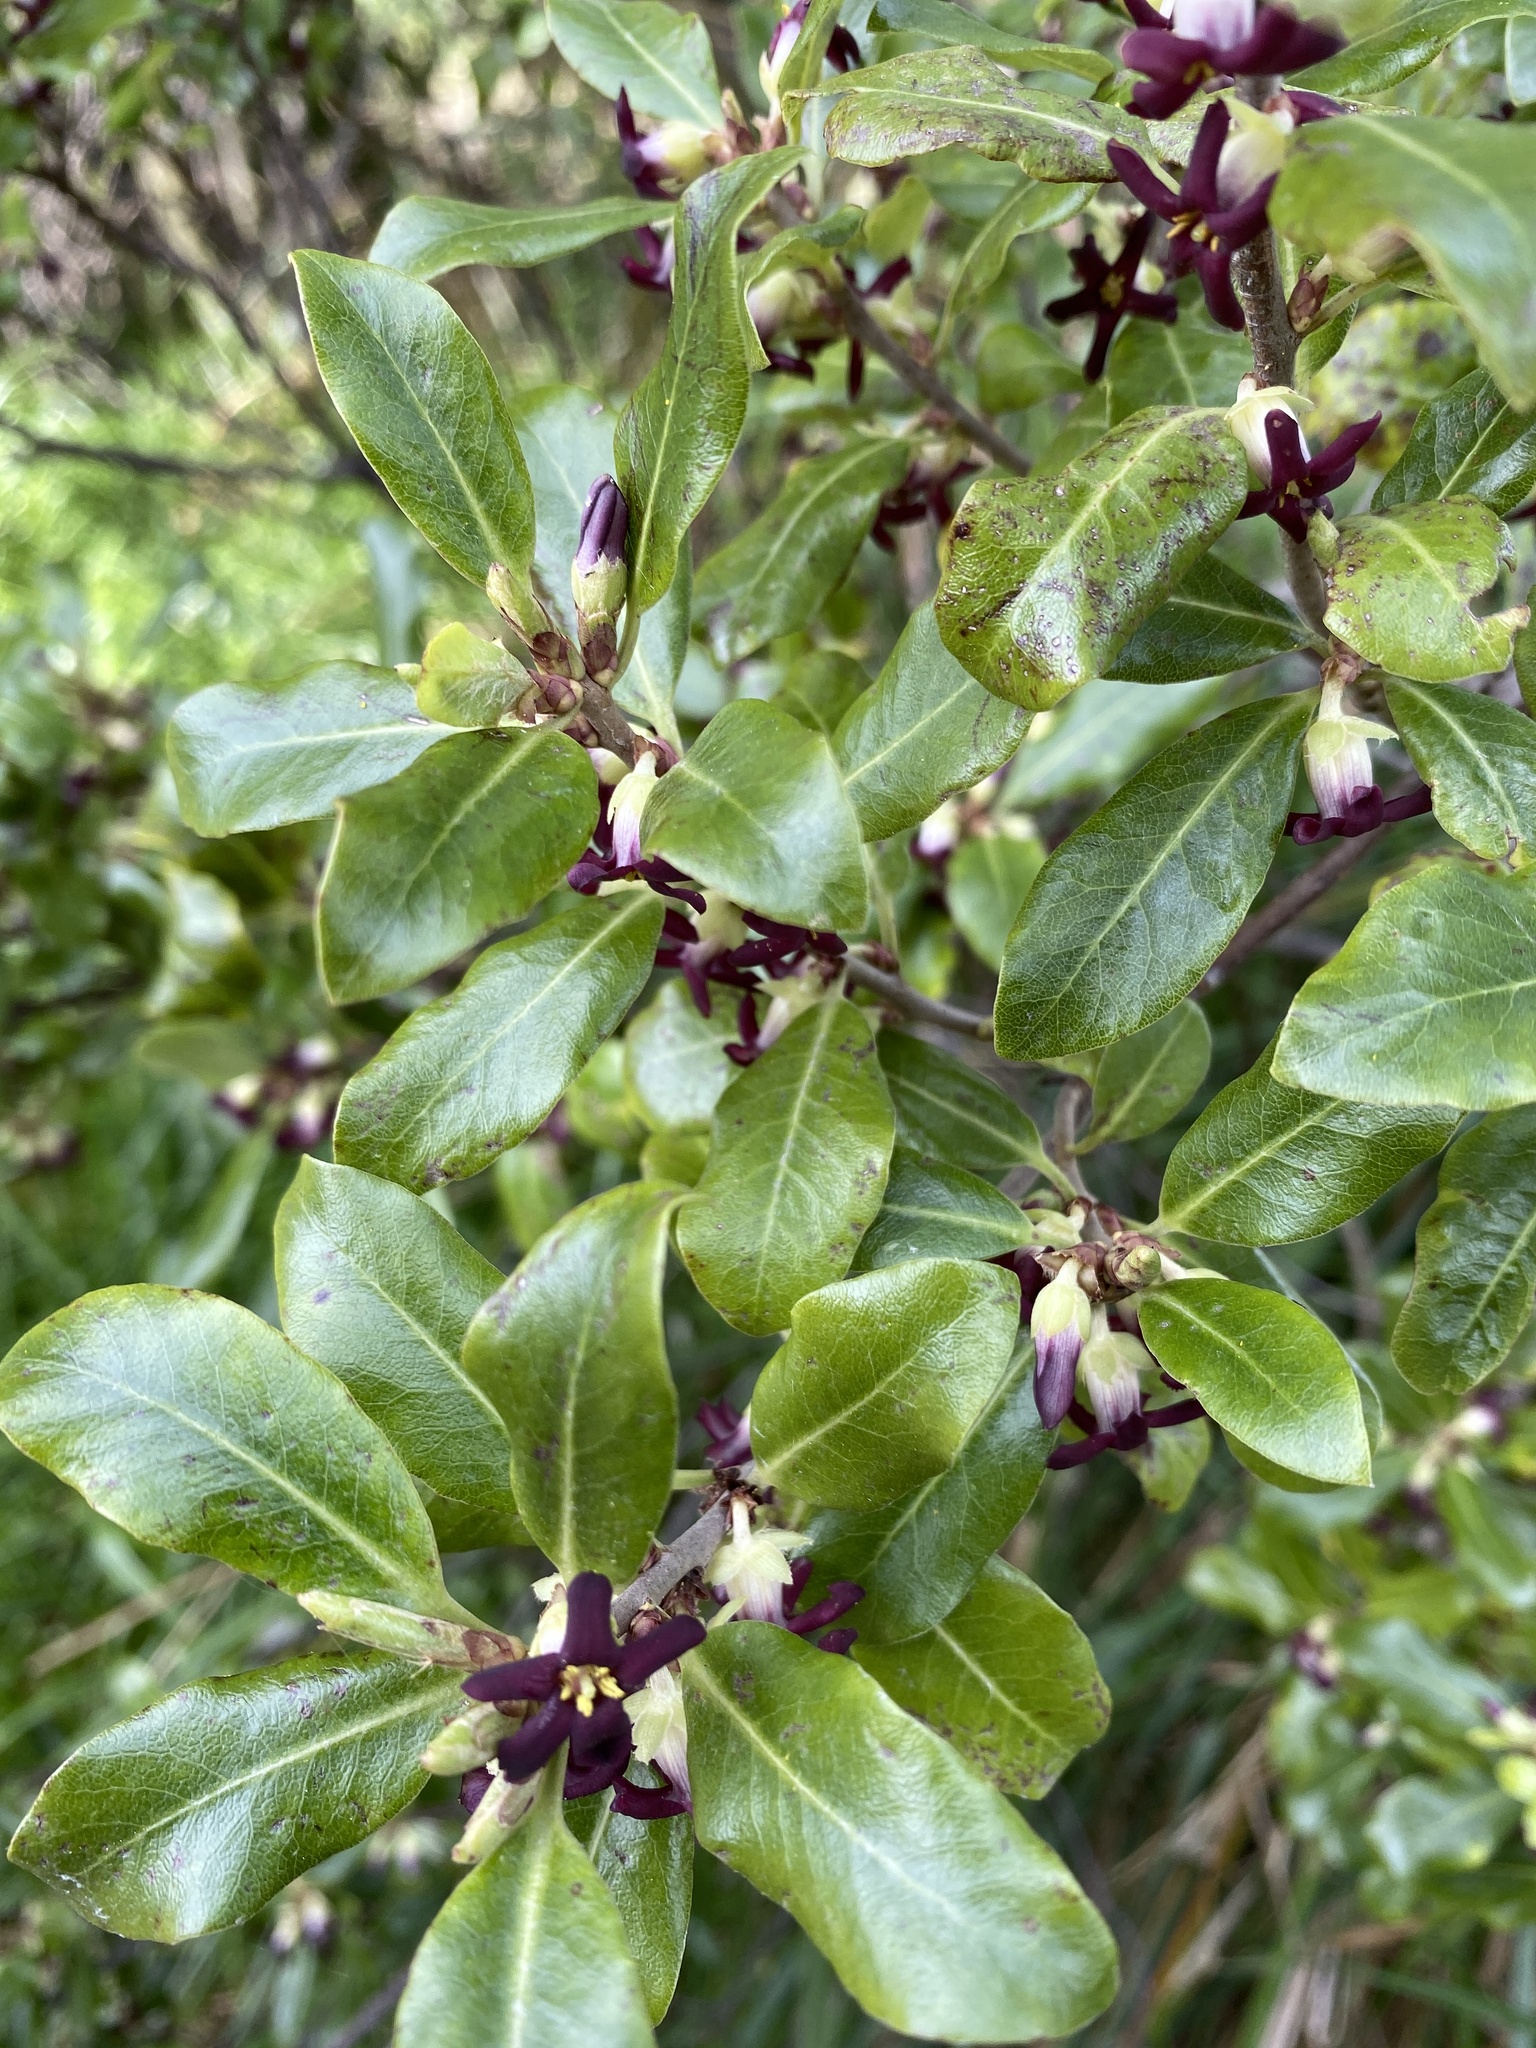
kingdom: Plantae
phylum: Tracheophyta
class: Magnoliopsida
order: Apiales
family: Pittosporaceae
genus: Pittosporum
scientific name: Pittosporum tenuifolium
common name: Kohuhu
